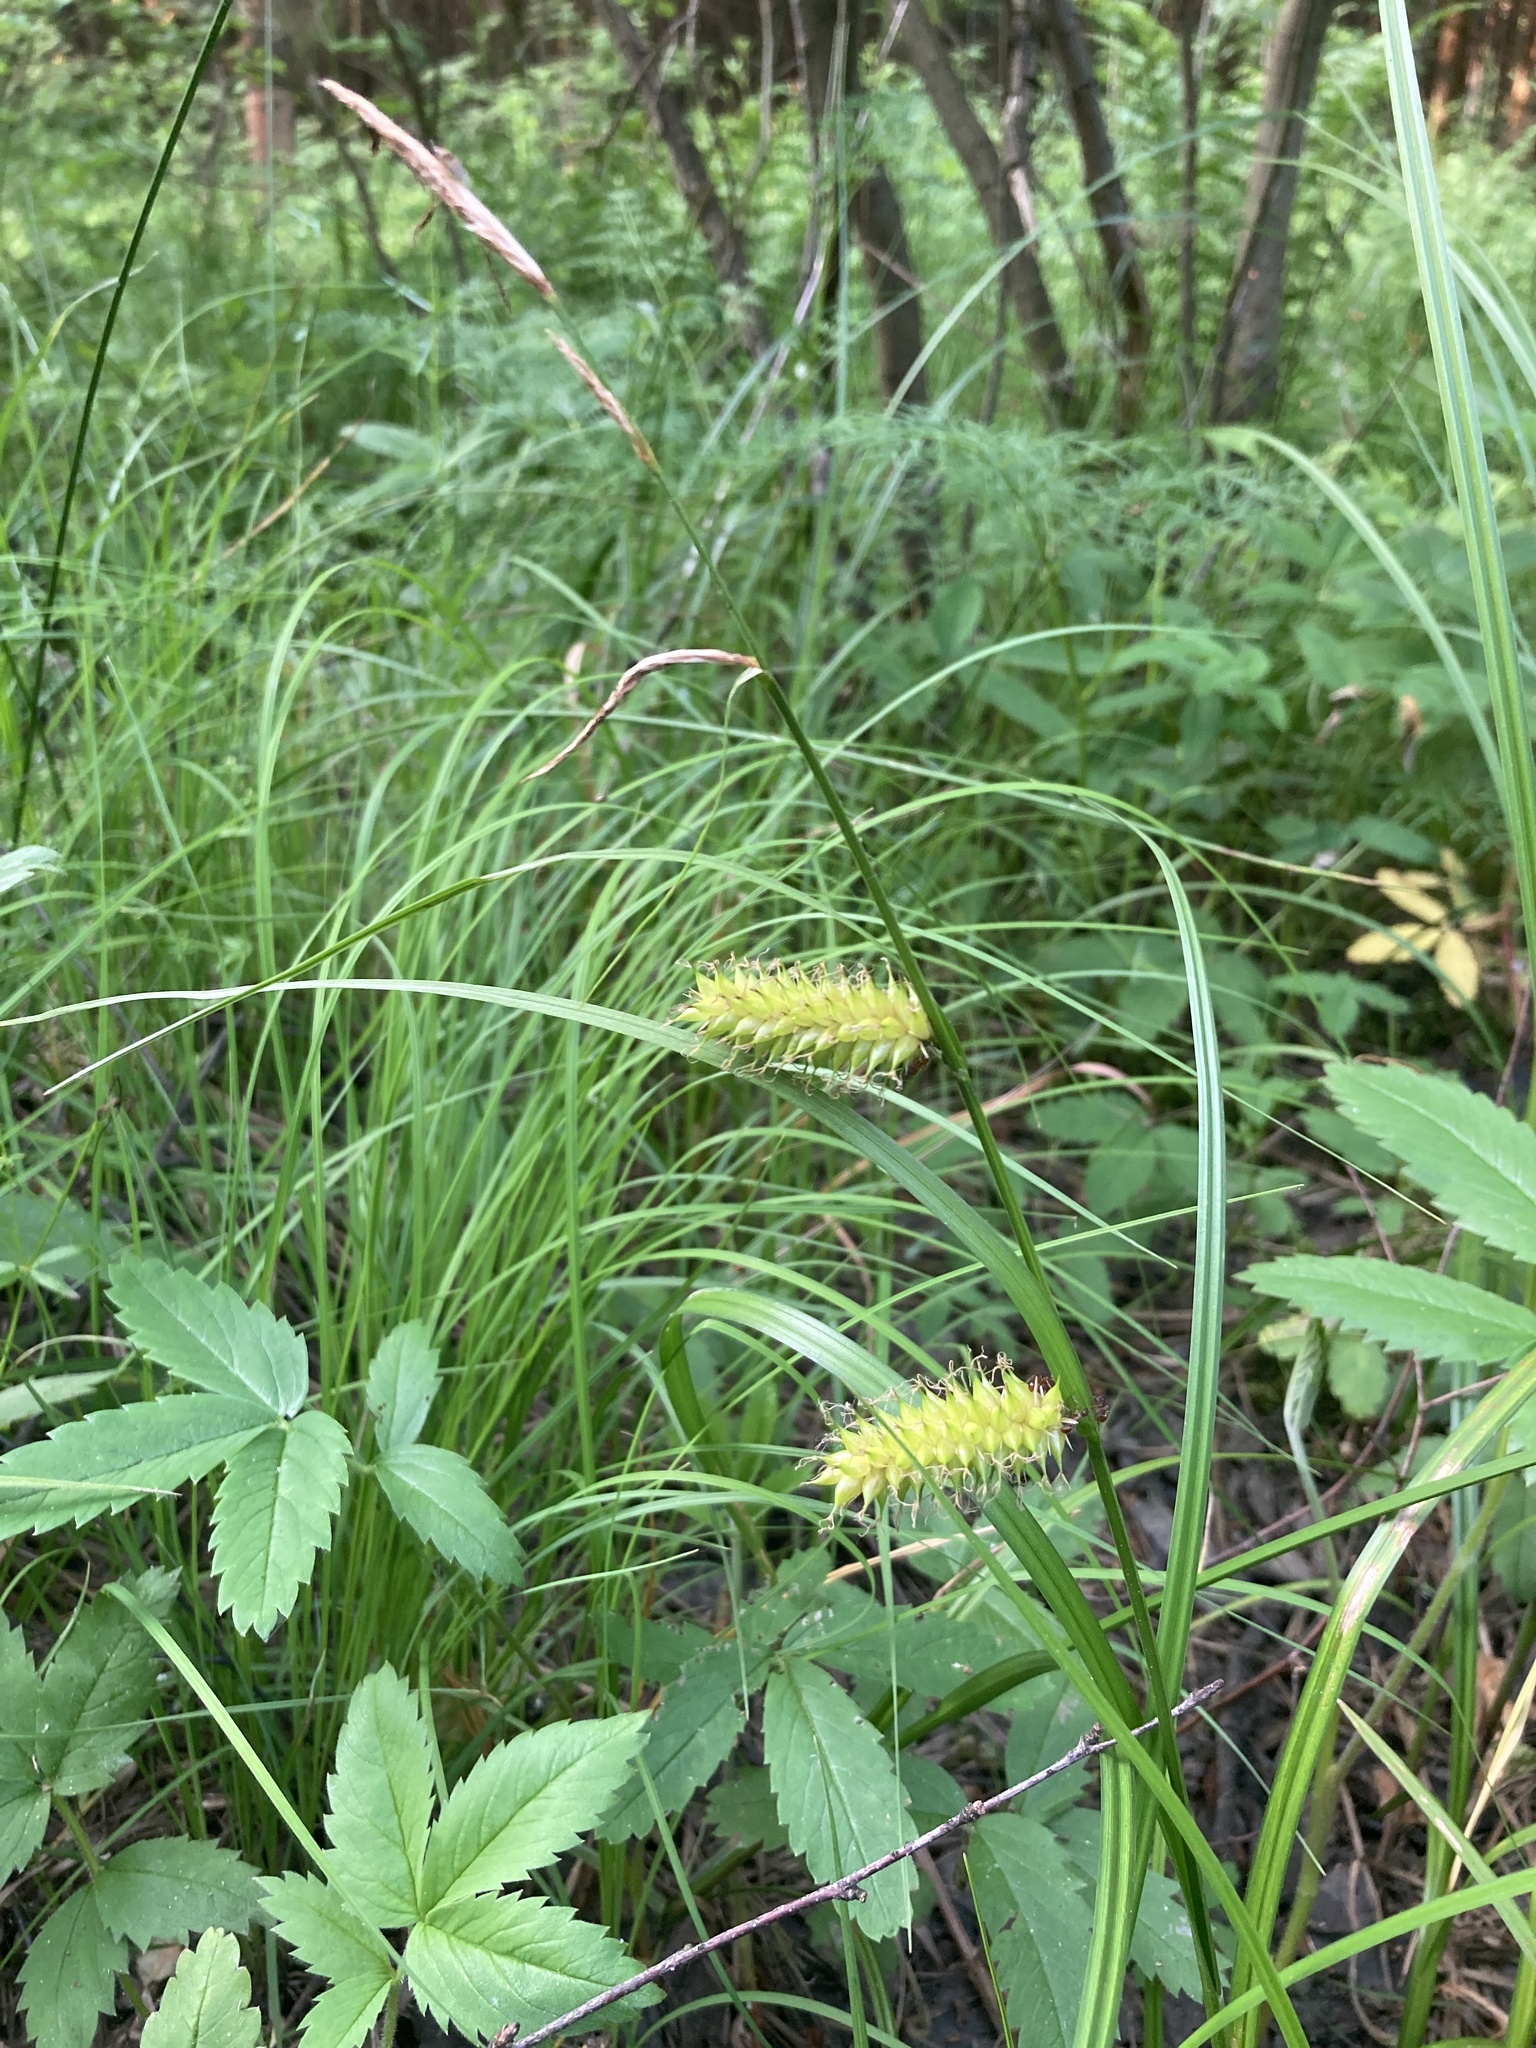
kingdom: Plantae
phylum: Tracheophyta
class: Liliopsida
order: Poales
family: Cyperaceae
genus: Carex
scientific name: Carex vesicaria
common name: Bladder-sedge
